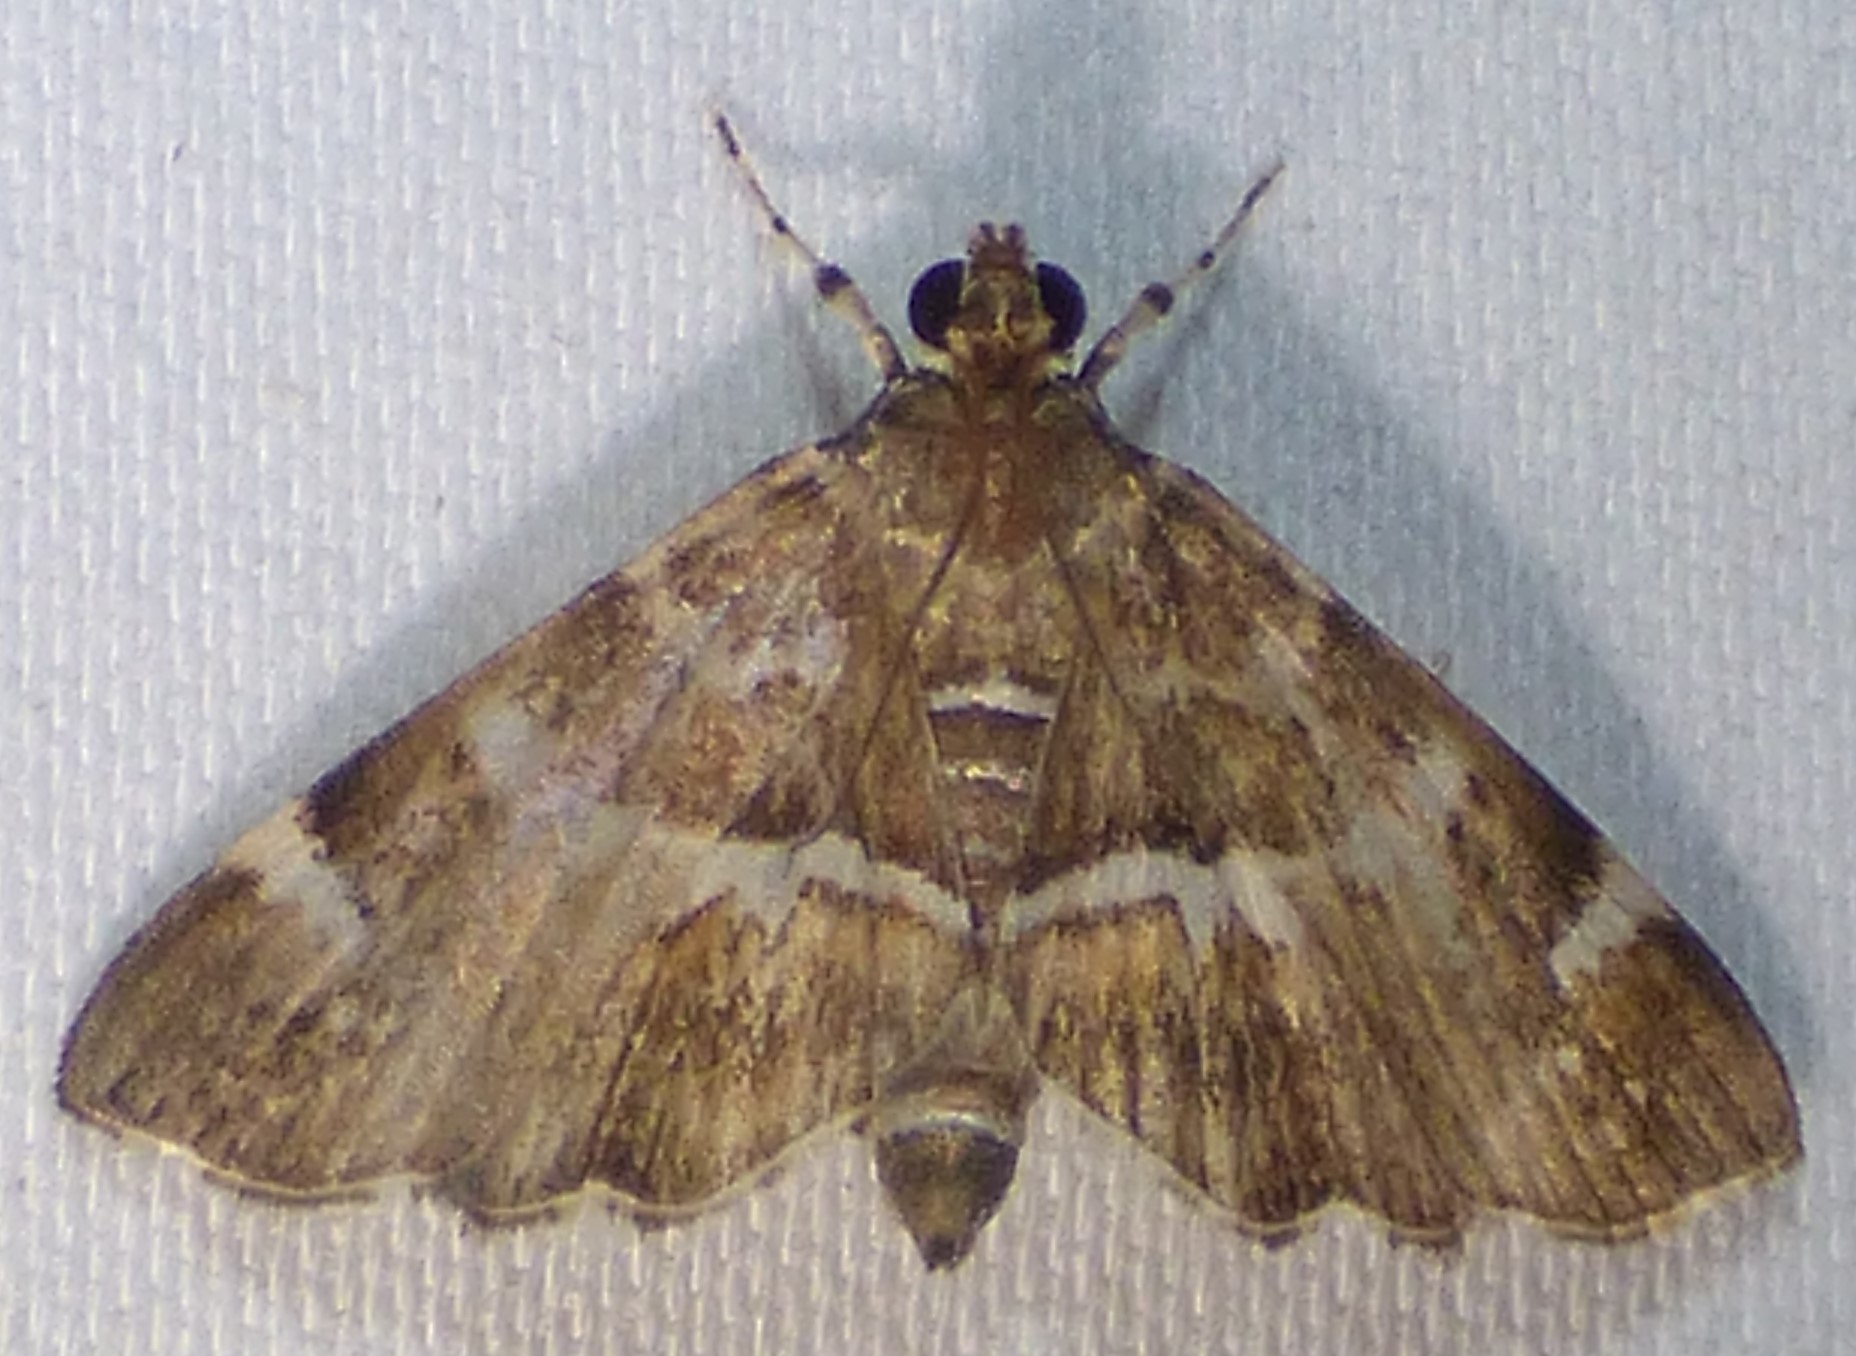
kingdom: Animalia
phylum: Arthropoda
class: Insecta
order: Lepidoptera
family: Crambidae
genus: Hymenia
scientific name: Hymenia perspectalis
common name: Spotted beet webworm
